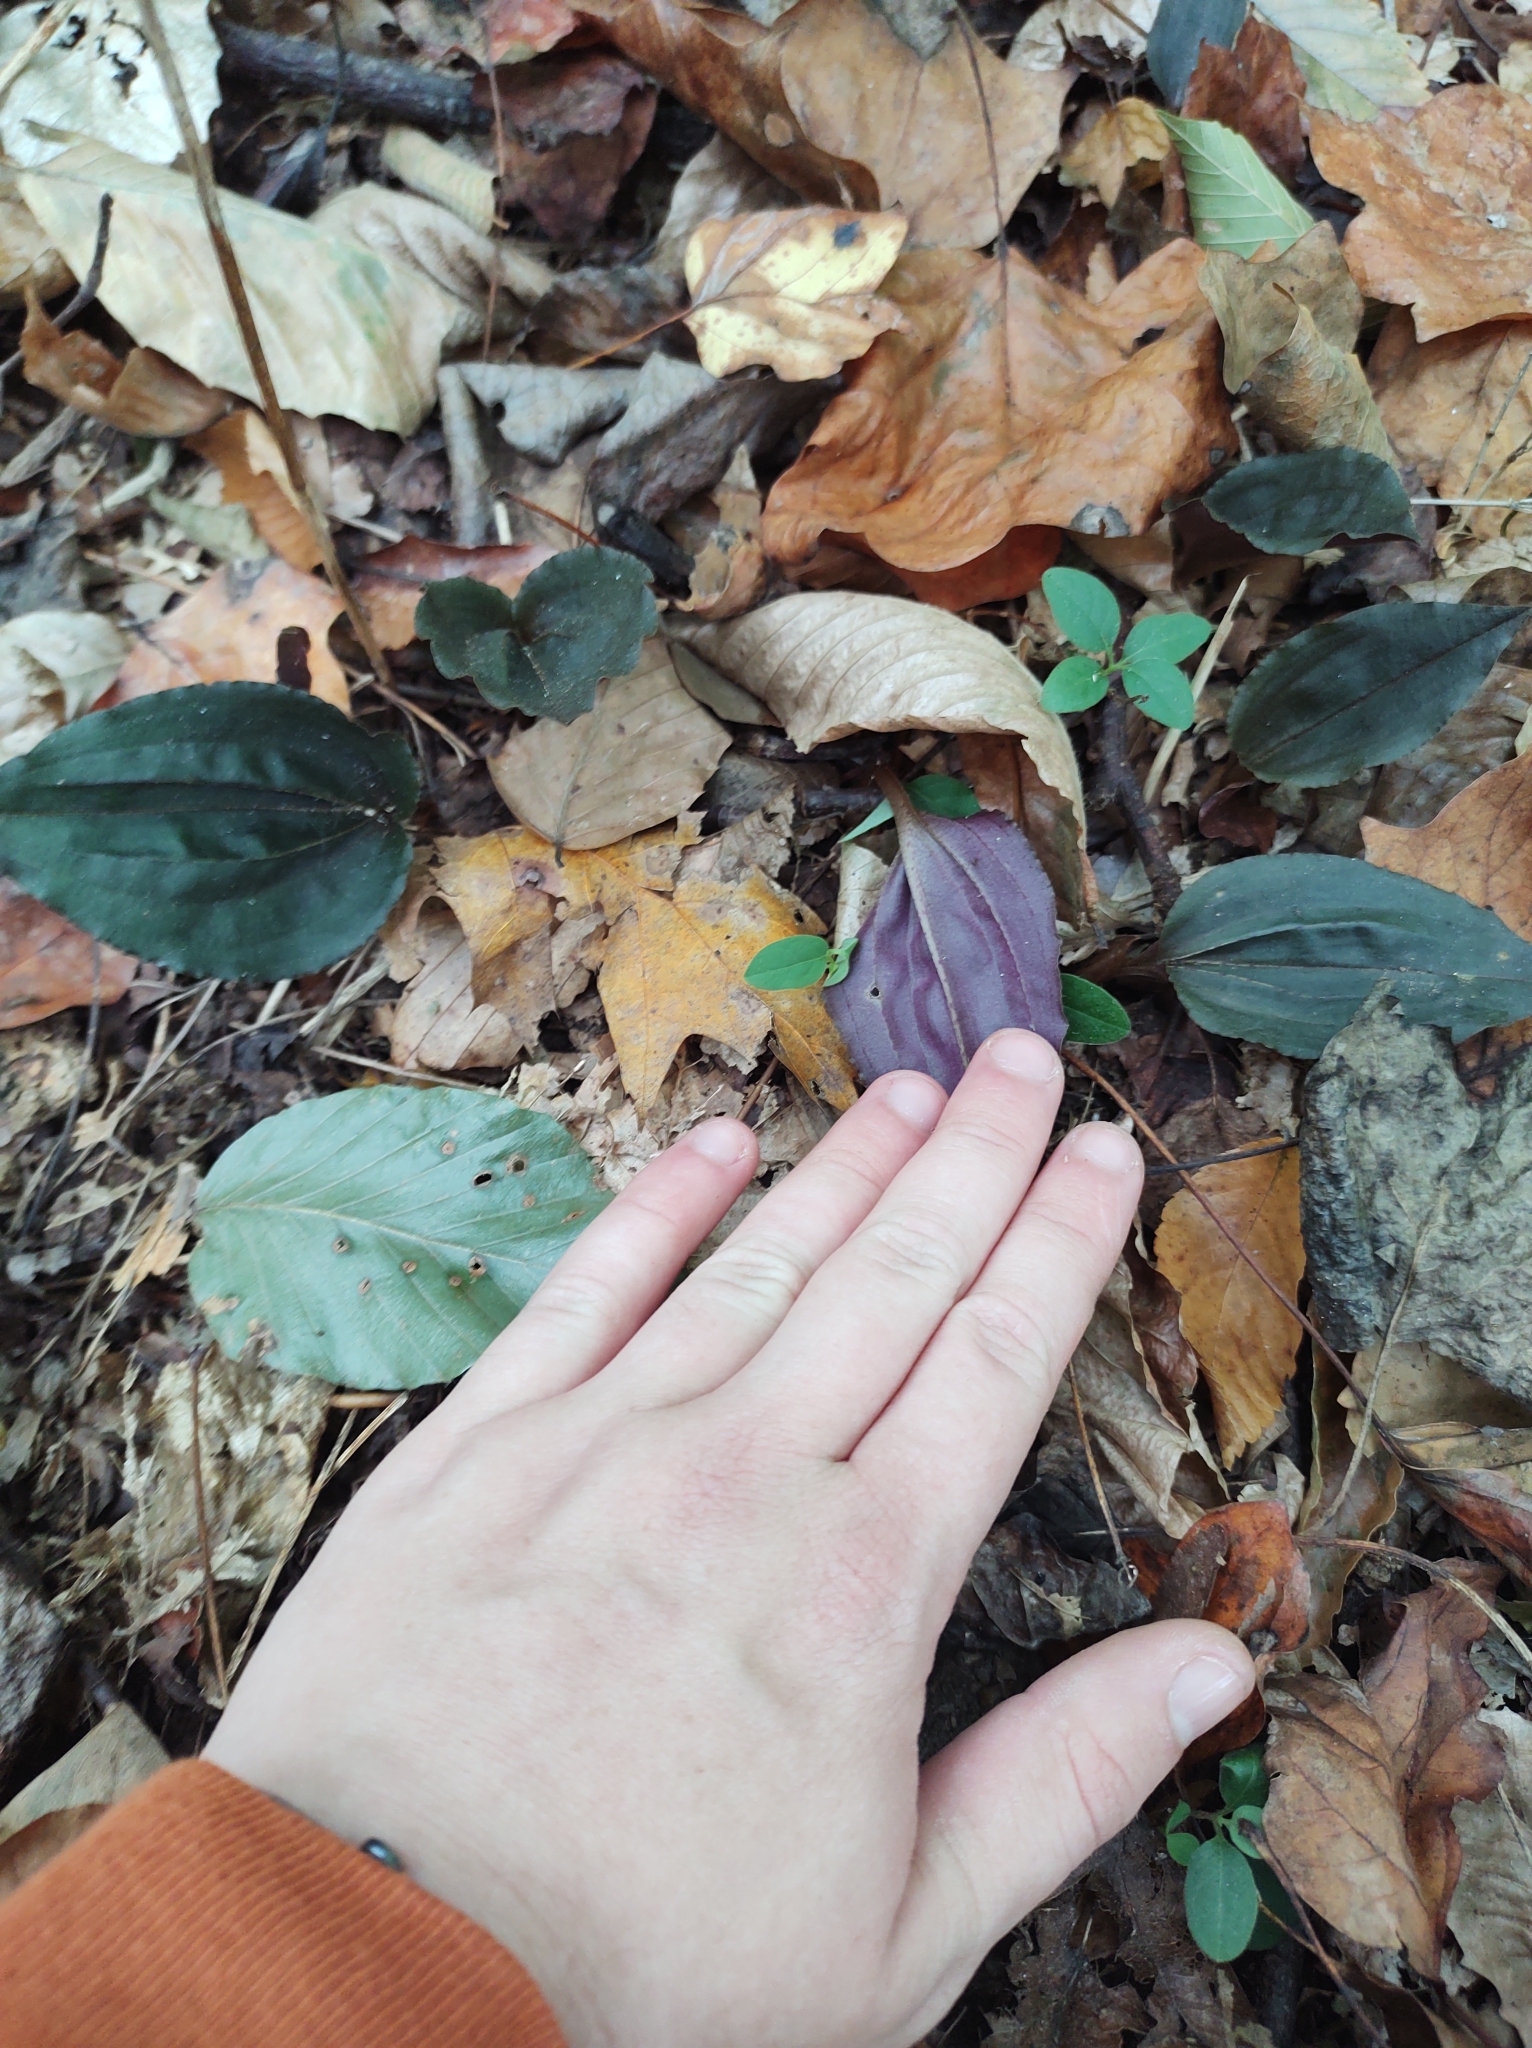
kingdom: Plantae
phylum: Tracheophyta
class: Liliopsida
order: Asparagales
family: Orchidaceae
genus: Tipularia
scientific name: Tipularia discolor
